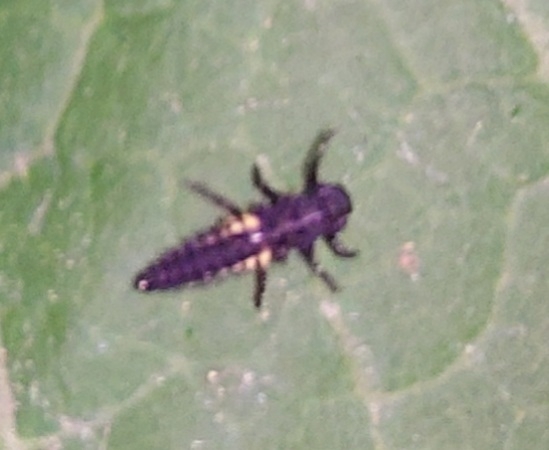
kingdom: Animalia
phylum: Arthropoda
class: Insecta
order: Coleoptera
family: Coccinellidae
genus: Harmonia
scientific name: Harmonia axyridis
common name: Harlequin ladybird
